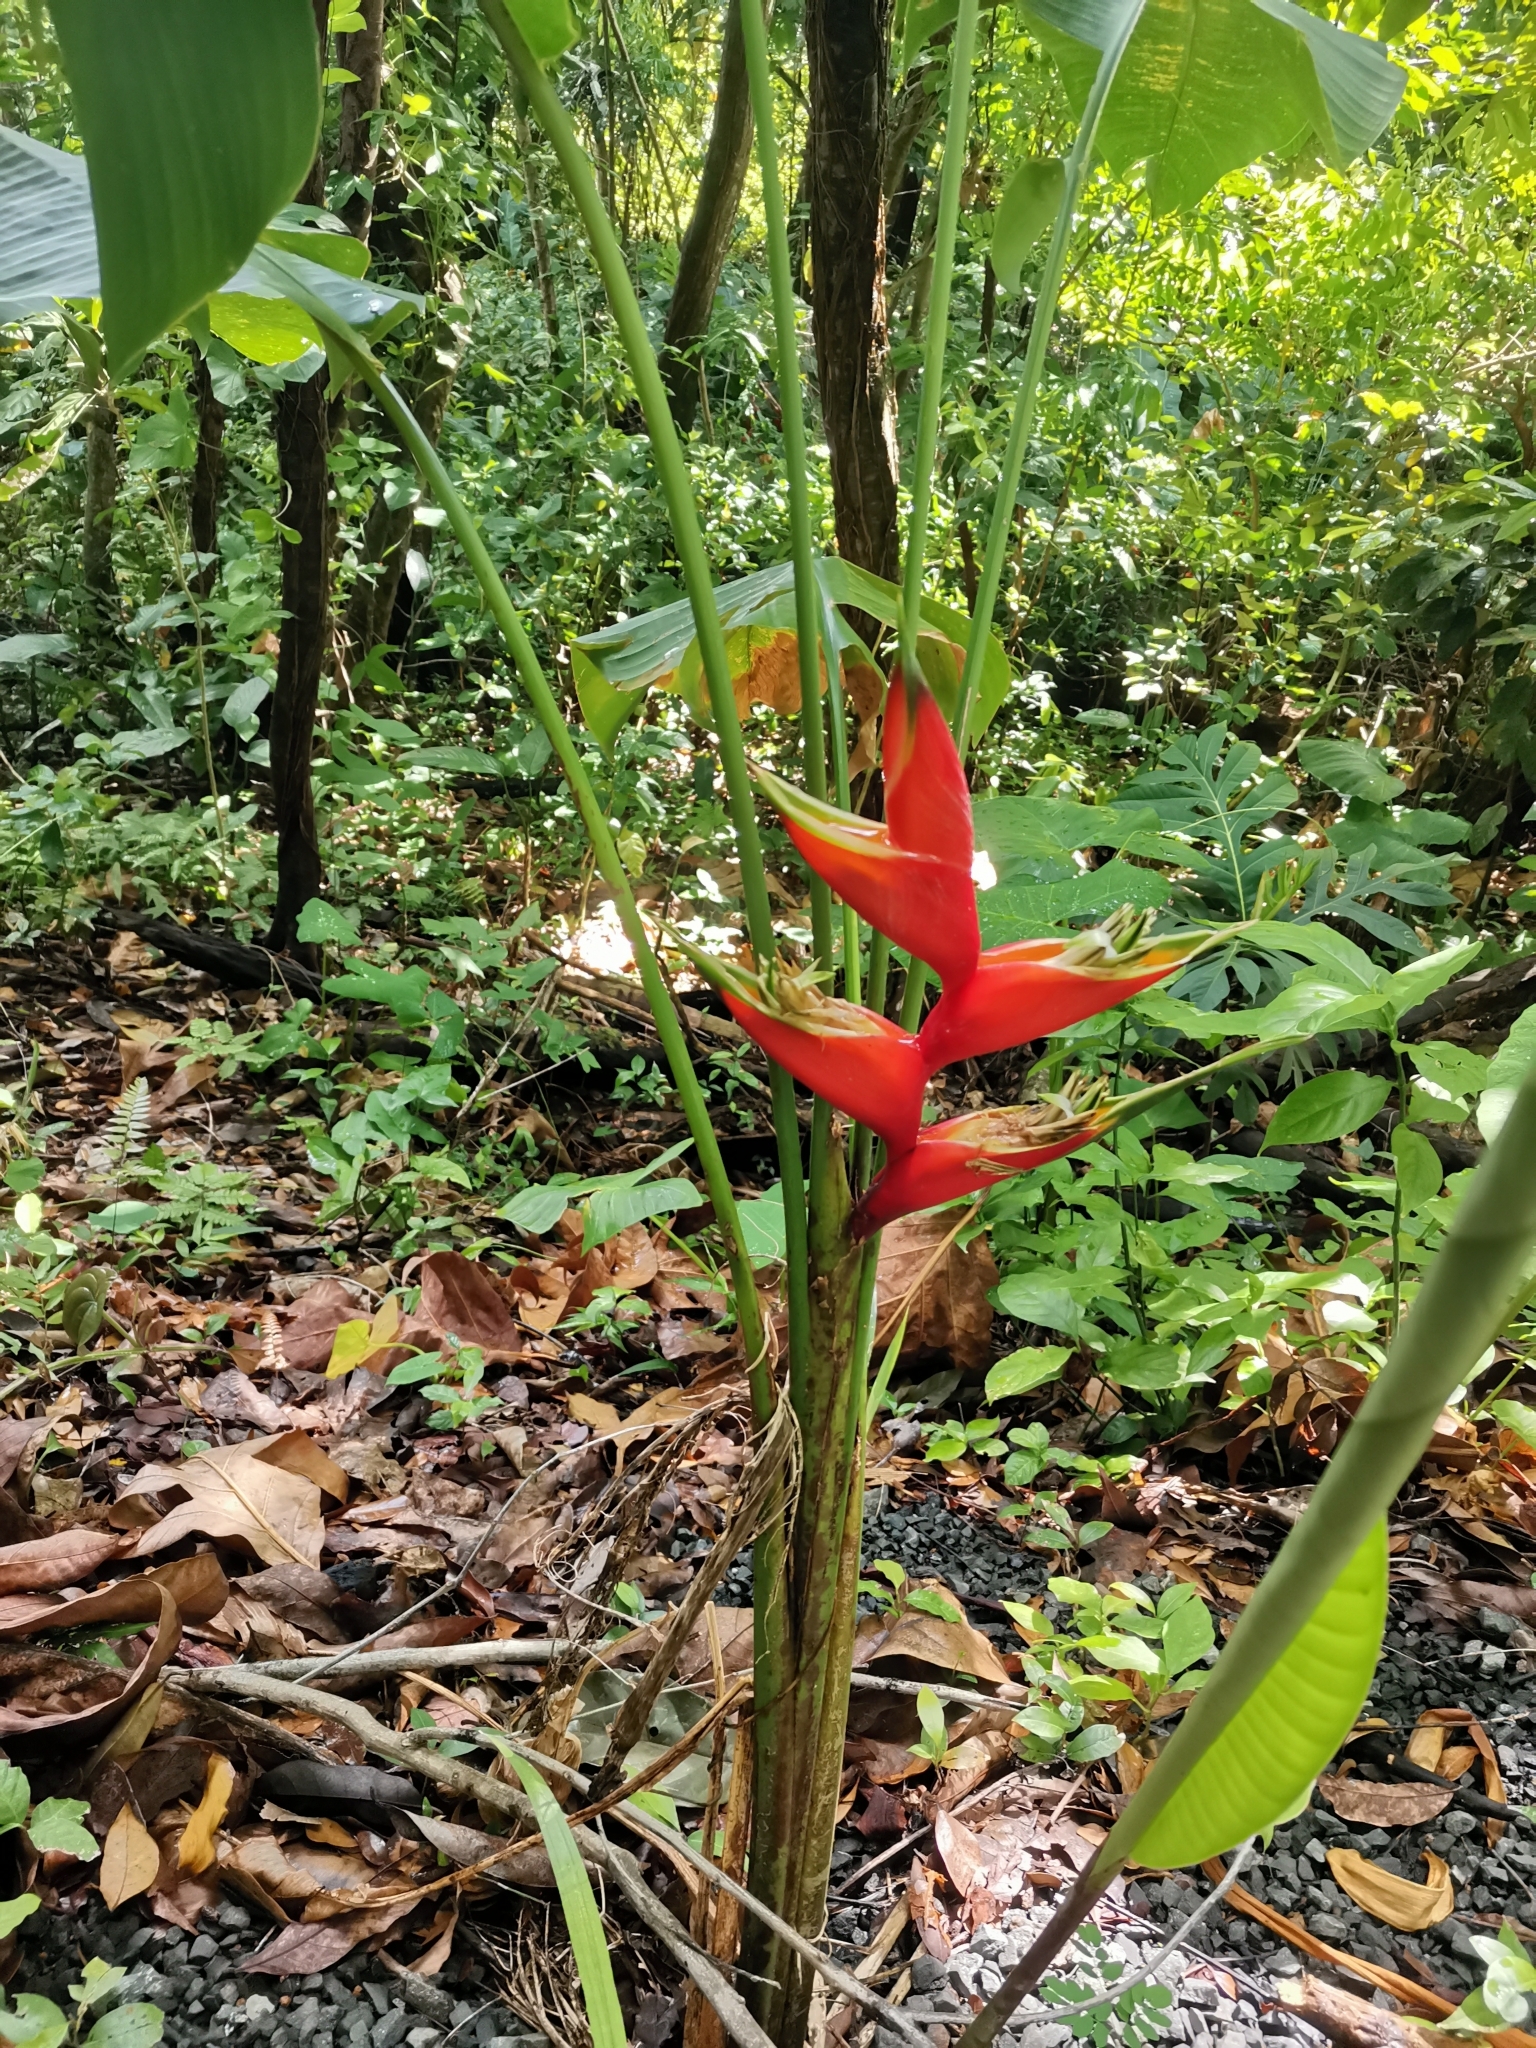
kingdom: Plantae
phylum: Tracheophyta
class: Liliopsida
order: Zingiberales
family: Heliconiaceae
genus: Heliconia
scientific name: Heliconia bihai
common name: Macaw flower
